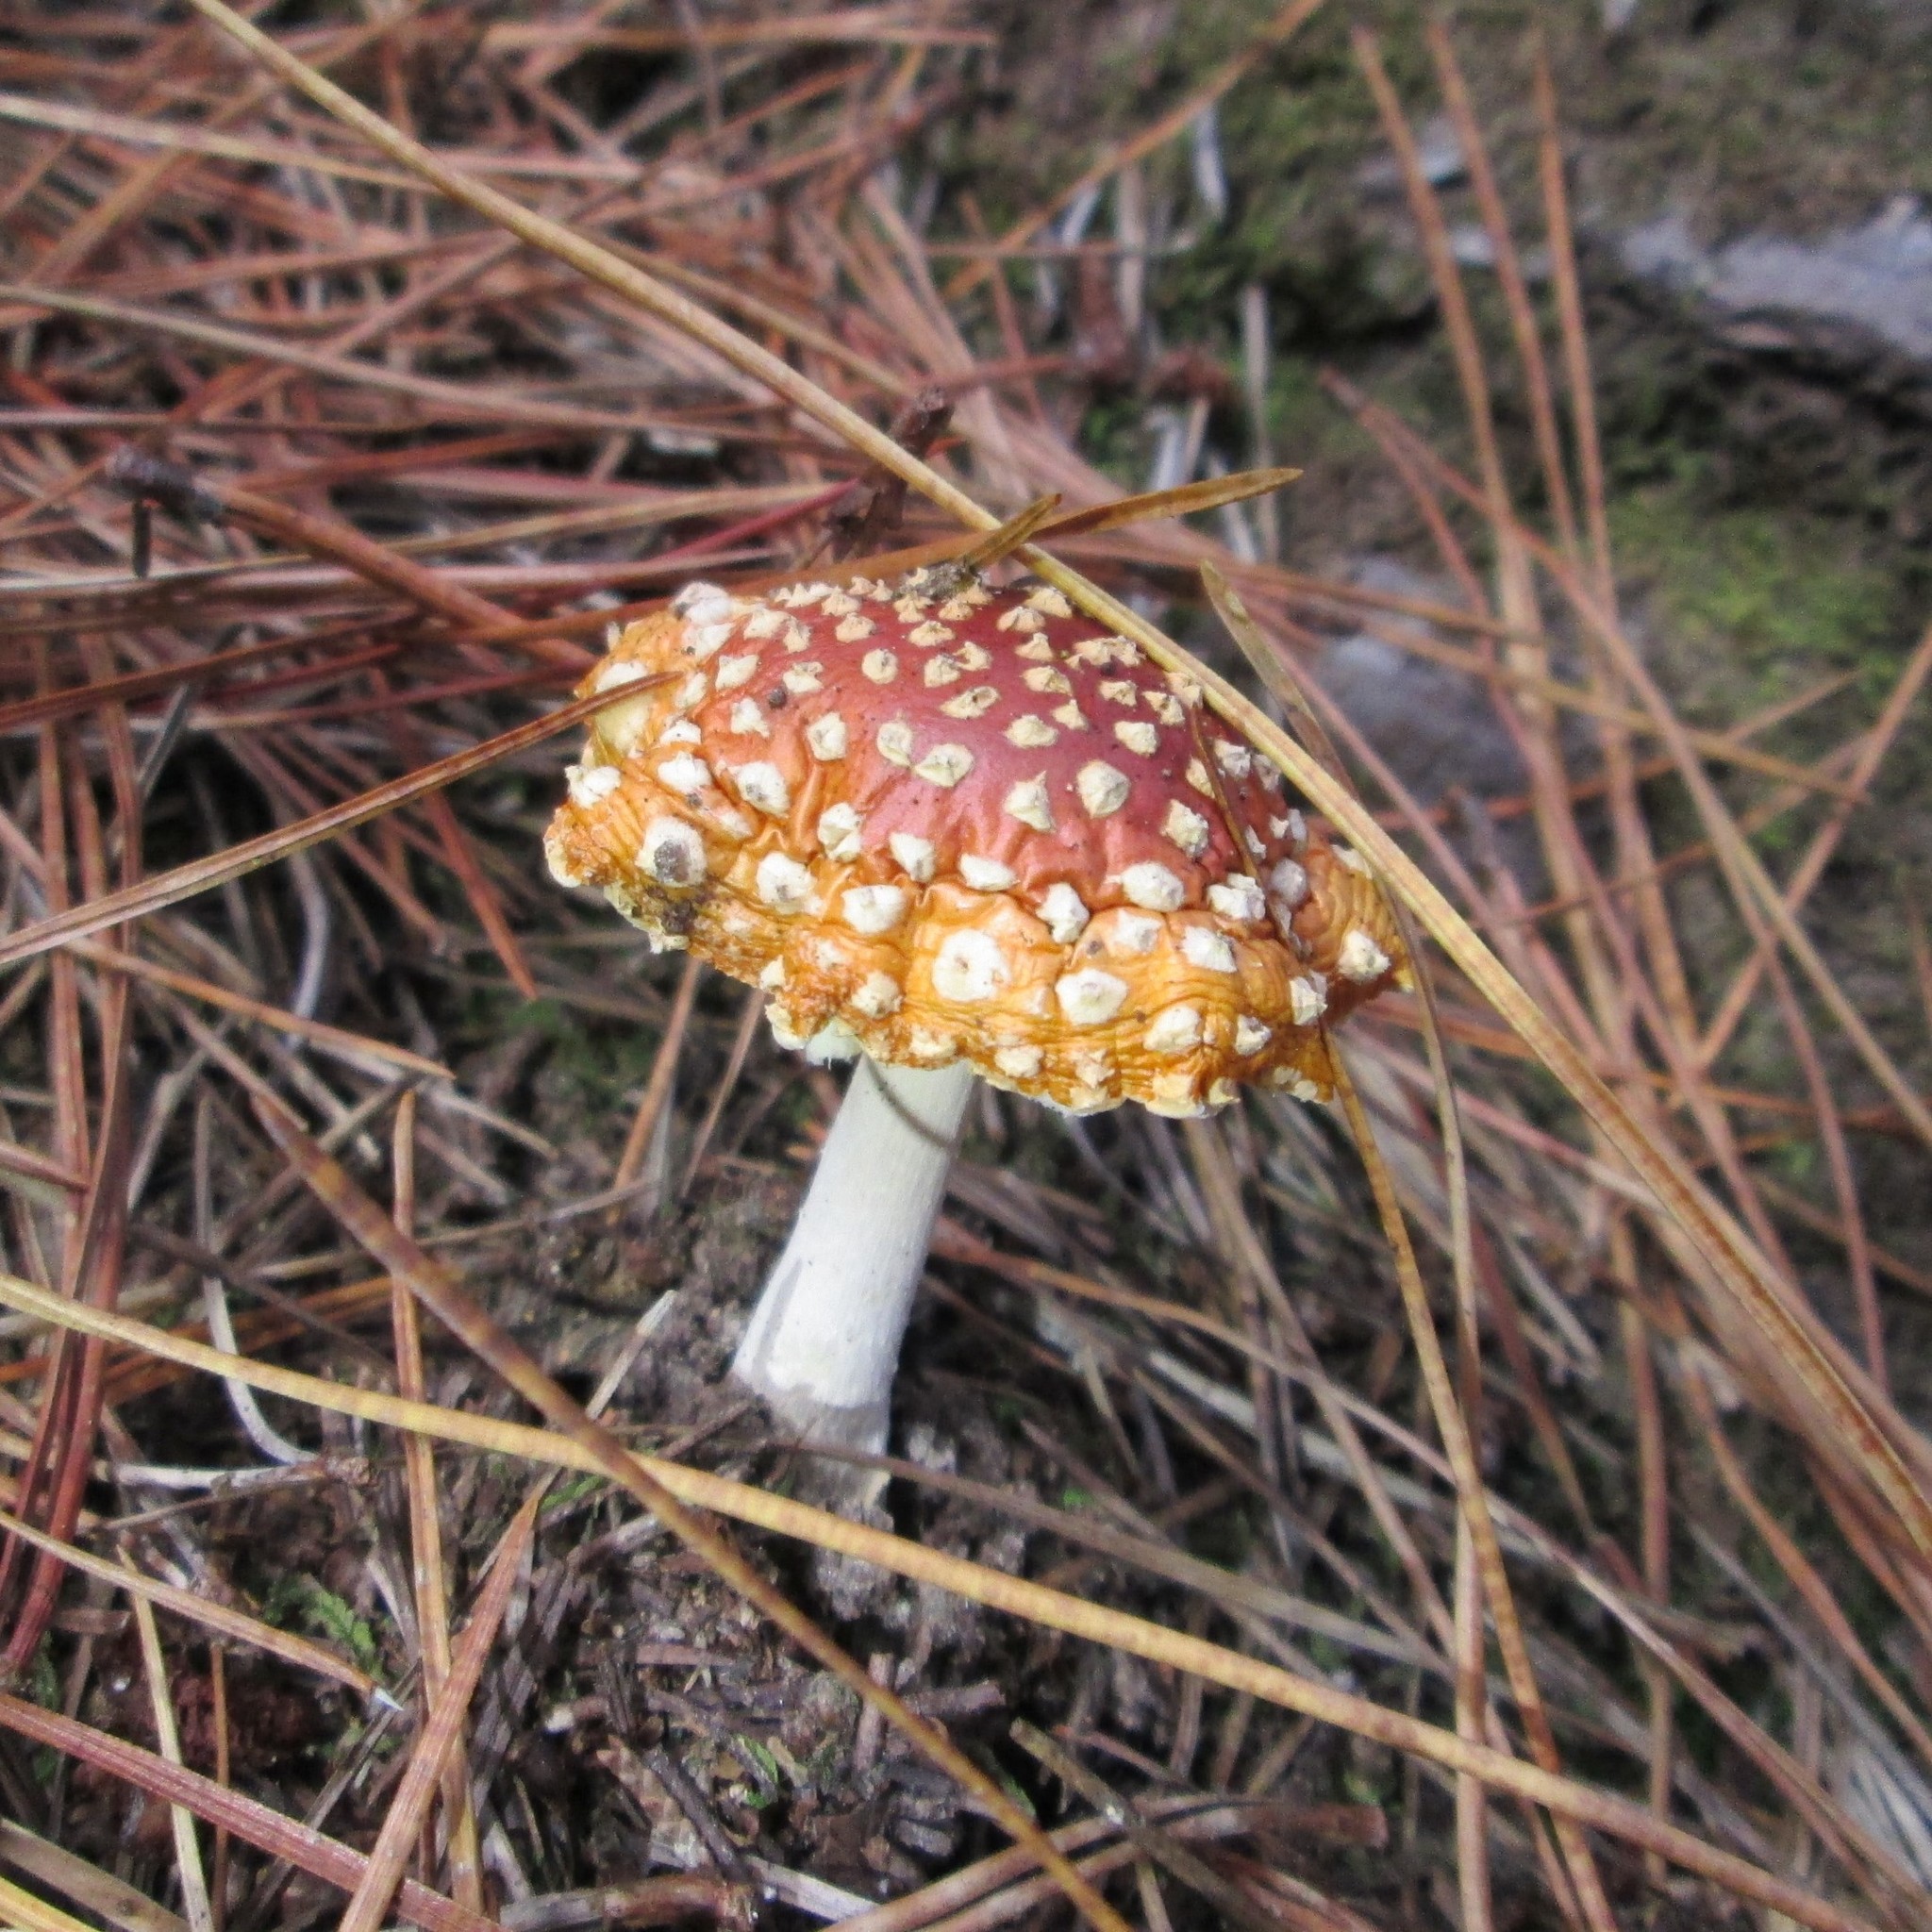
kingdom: Fungi
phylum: Basidiomycota
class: Agaricomycetes
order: Agaricales
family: Amanitaceae
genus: Amanita
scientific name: Amanita muscaria
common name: Fly agaric
